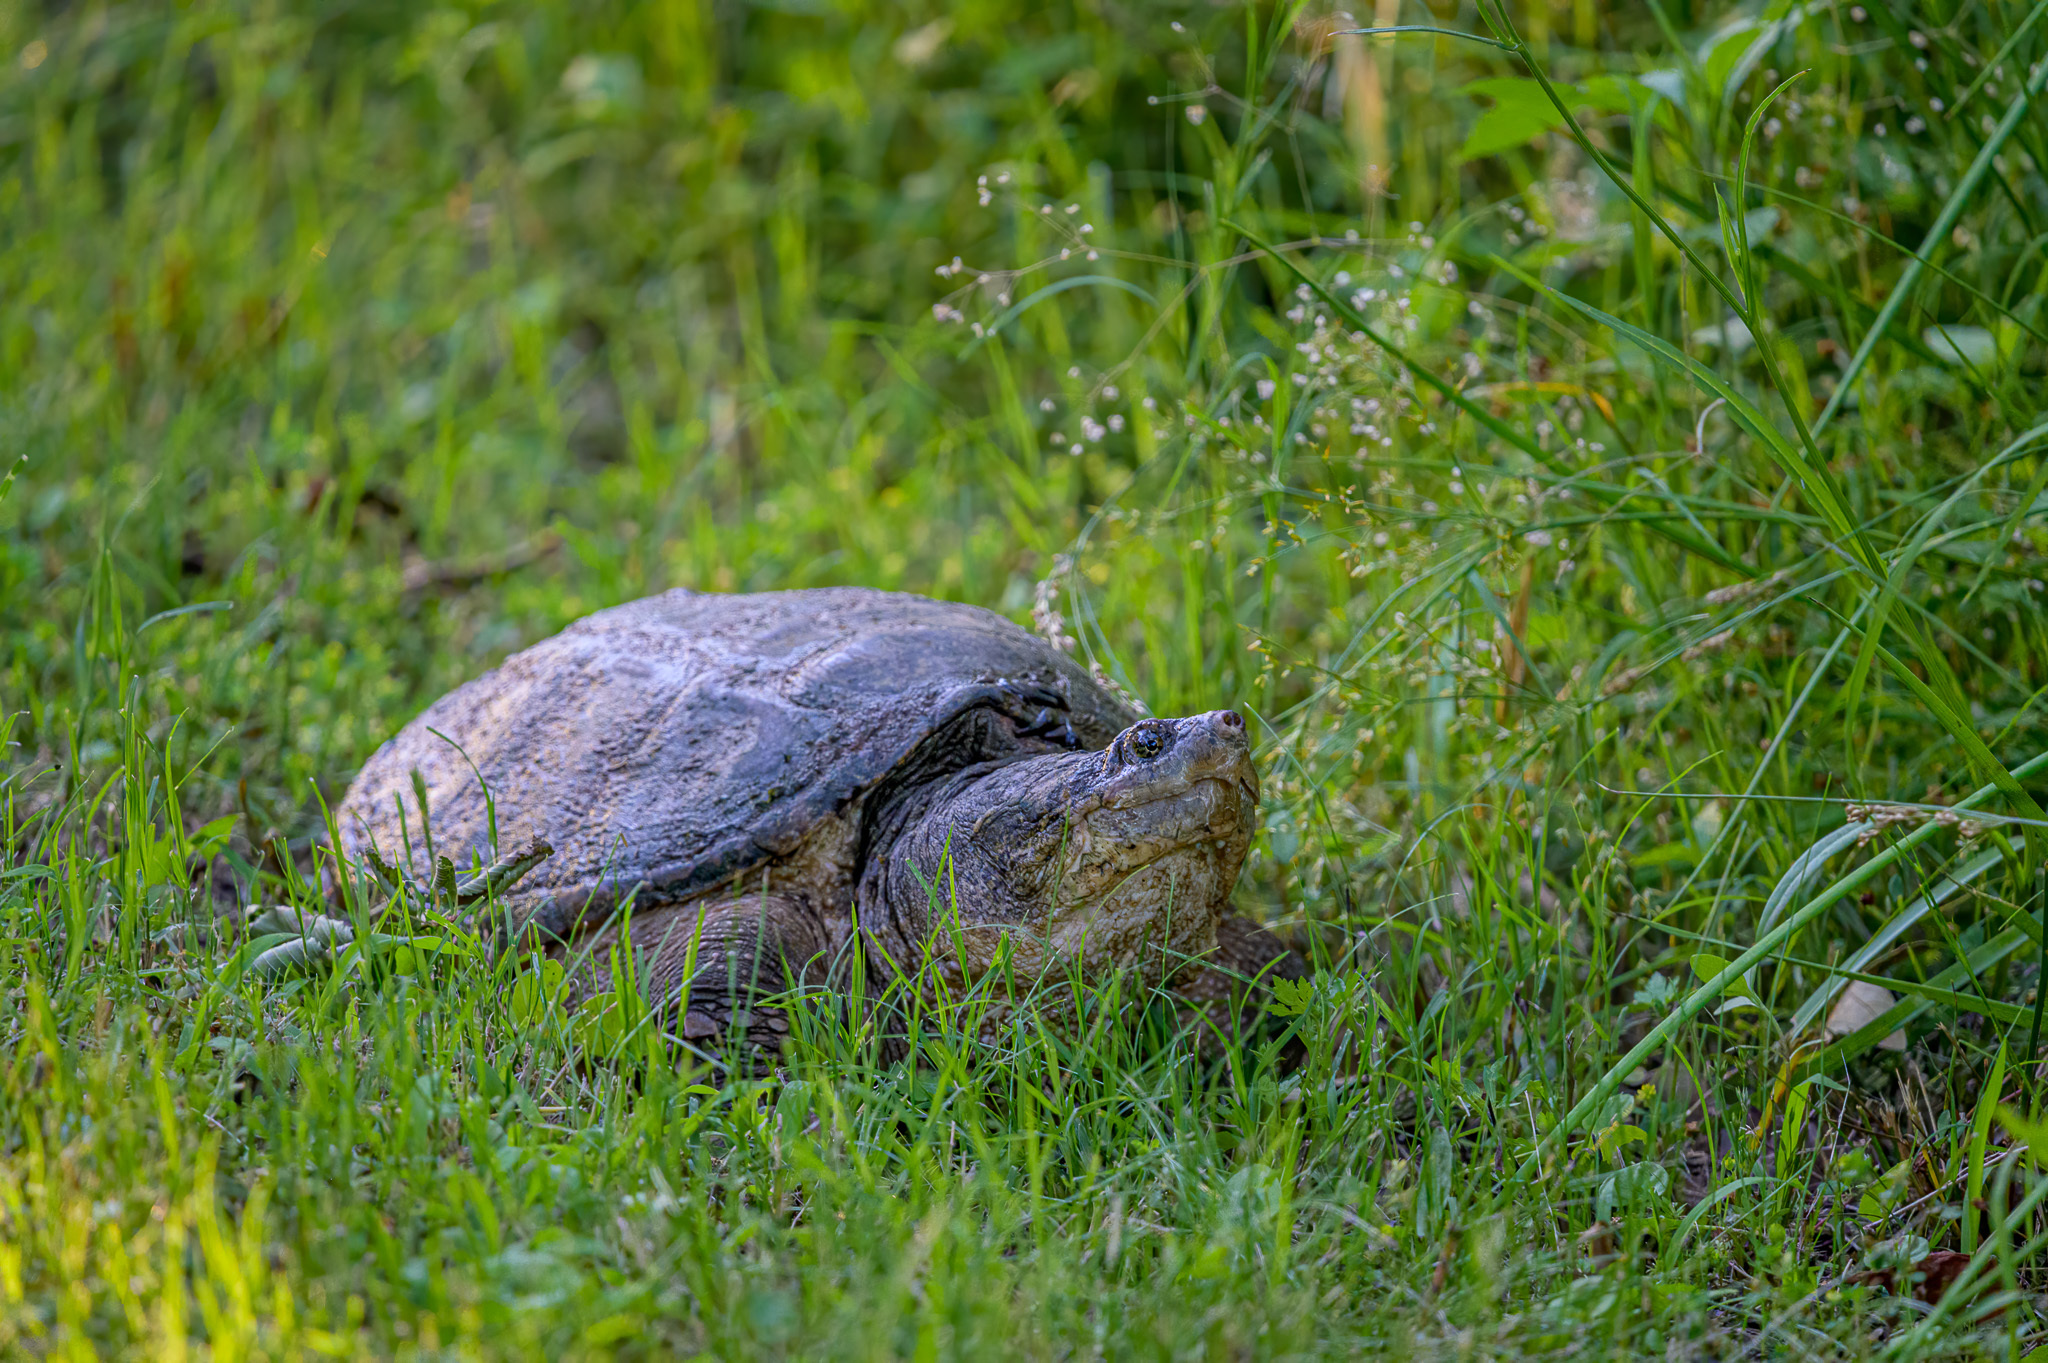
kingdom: Animalia
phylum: Chordata
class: Testudines
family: Chelydridae
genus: Chelydra
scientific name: Chelydra serpentina
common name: Common snapping turtle
